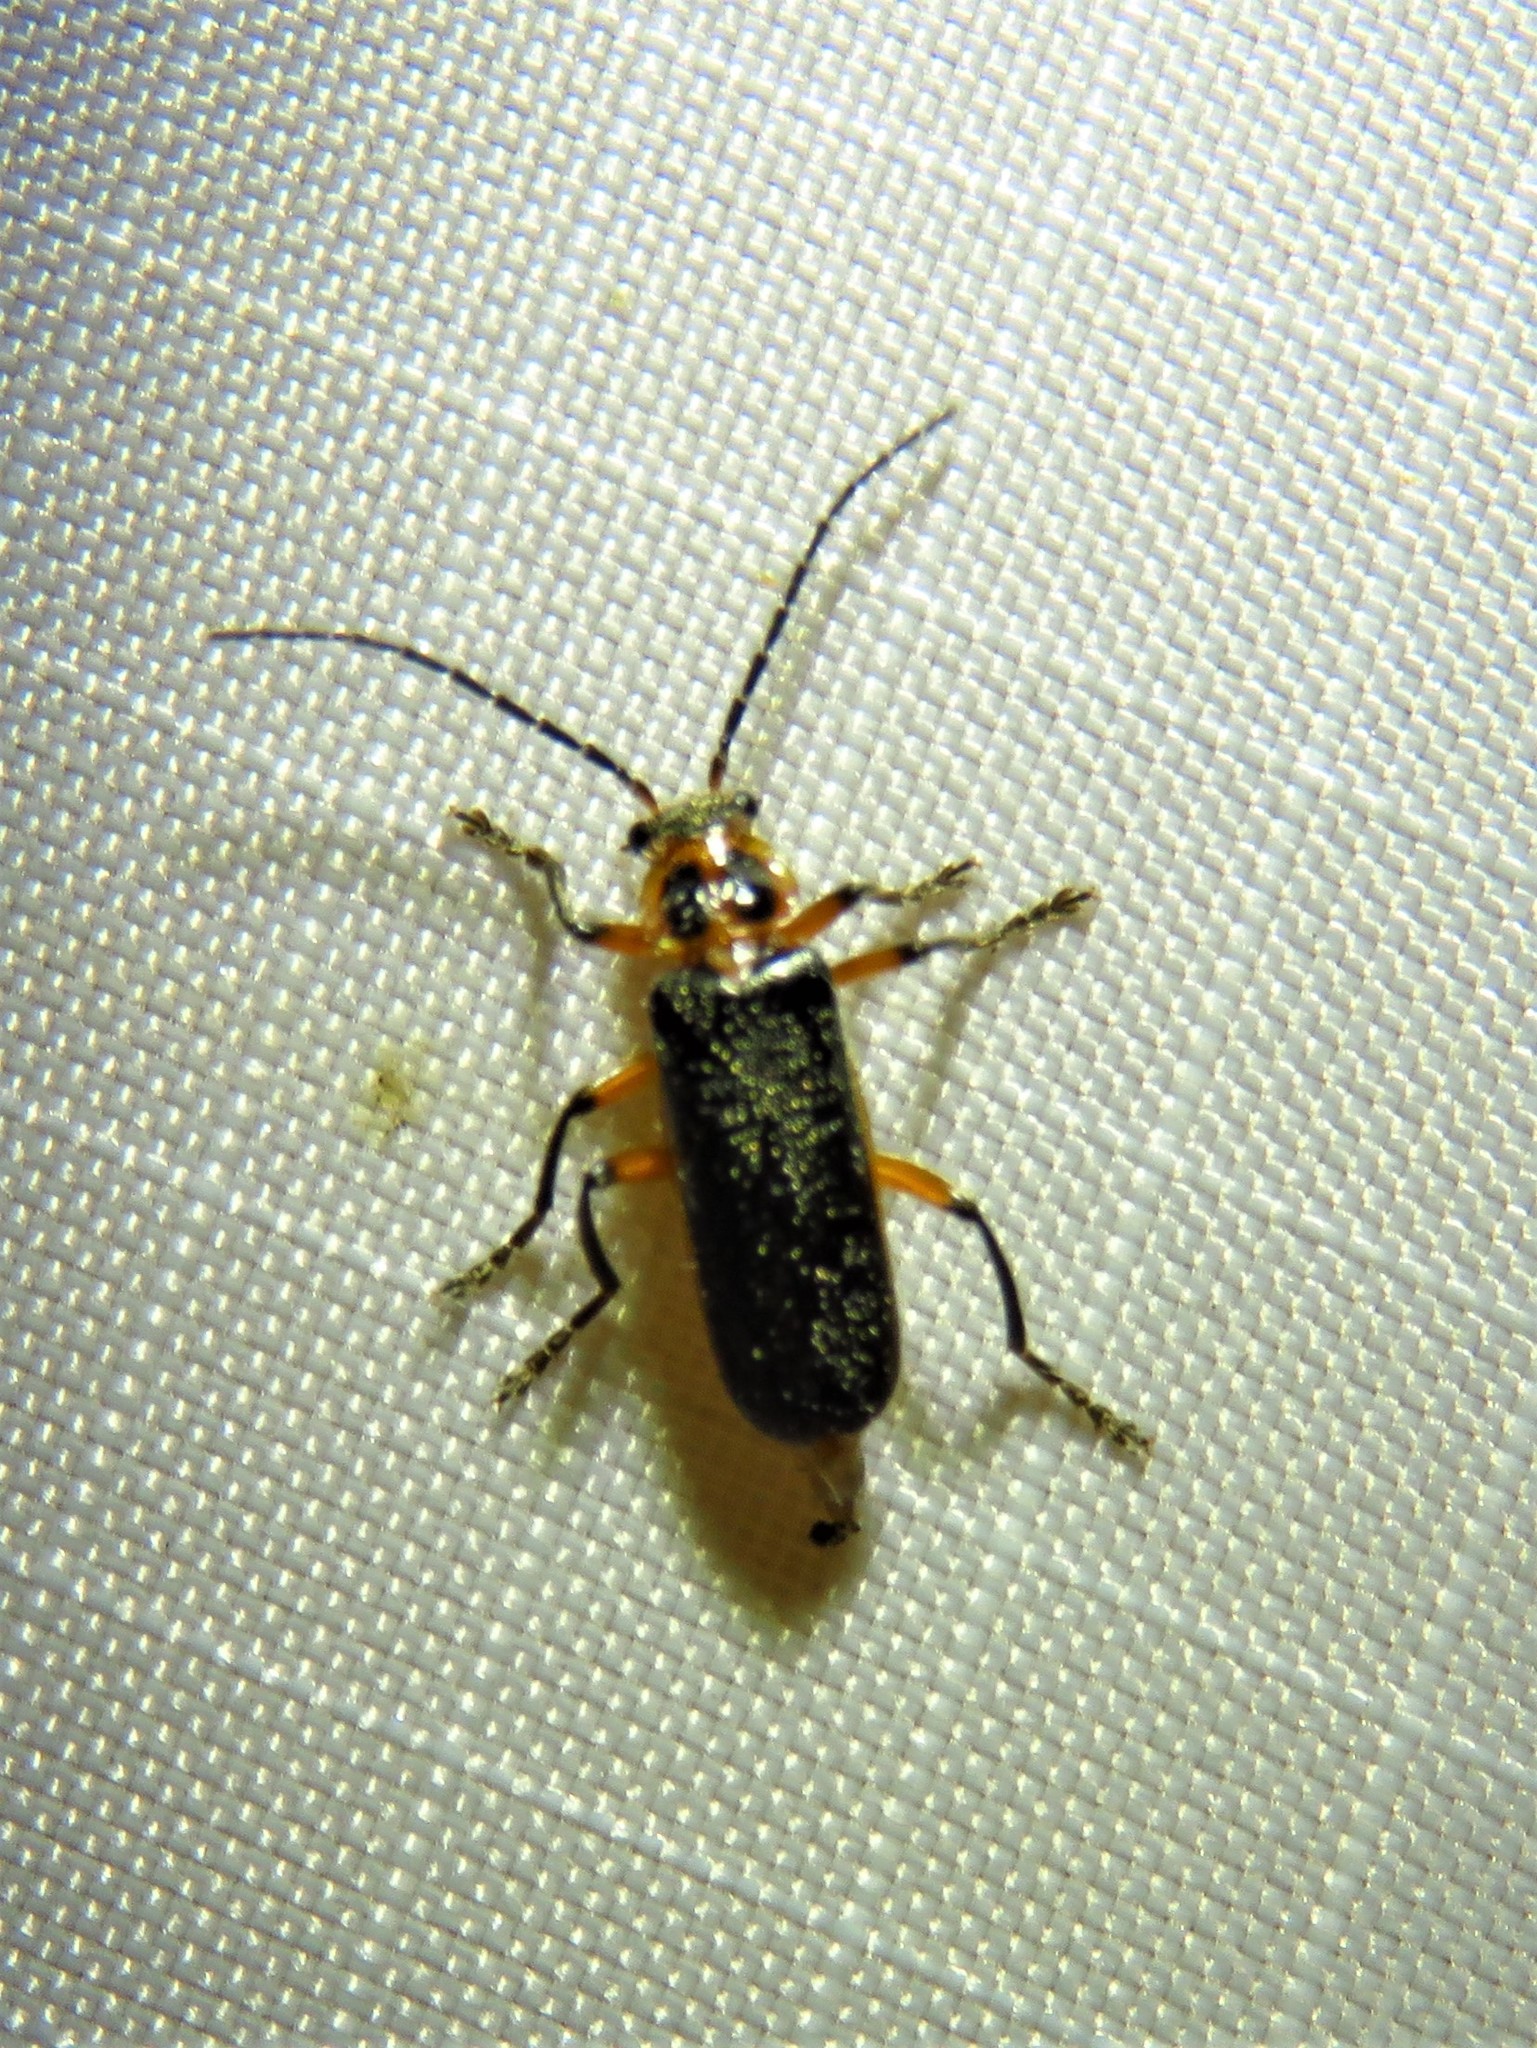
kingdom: Animalia
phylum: Arthropoda
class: Insecta
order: Coleoptera
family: Cantharidae
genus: Atalantycha
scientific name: Atalantycha bilineata
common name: Two-lined leatherwing
